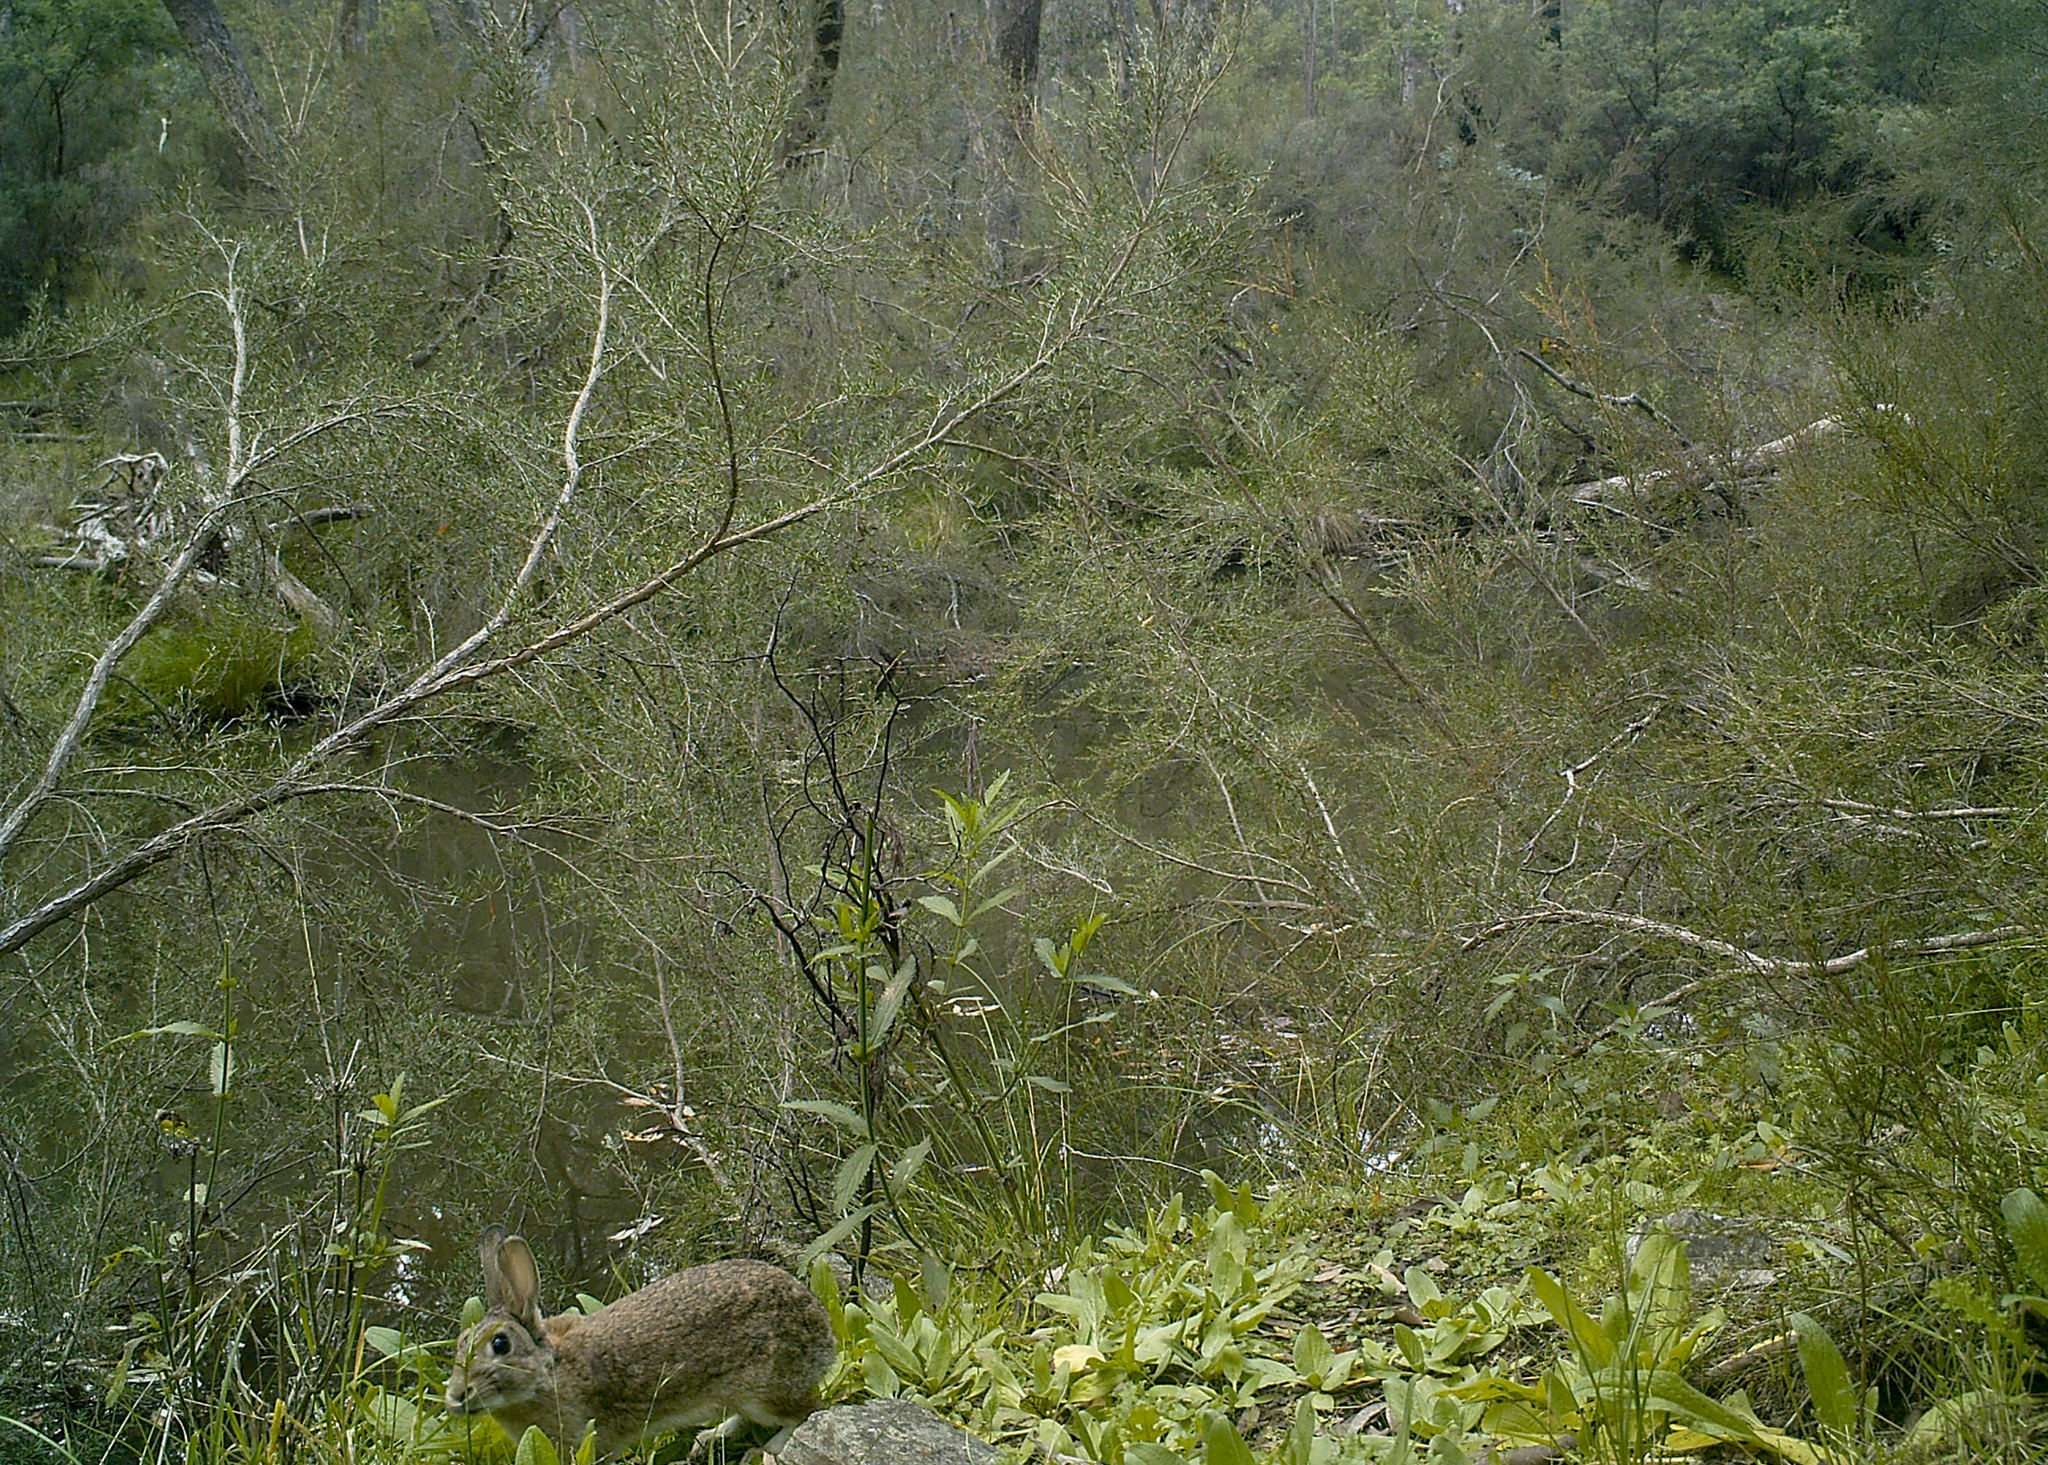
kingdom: Animalia
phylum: Chordata
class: Mammalia
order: Lagomorpha
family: Leporidae
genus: Oryctolagus
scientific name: Oryctolagus cuniculus
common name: European rabbit
